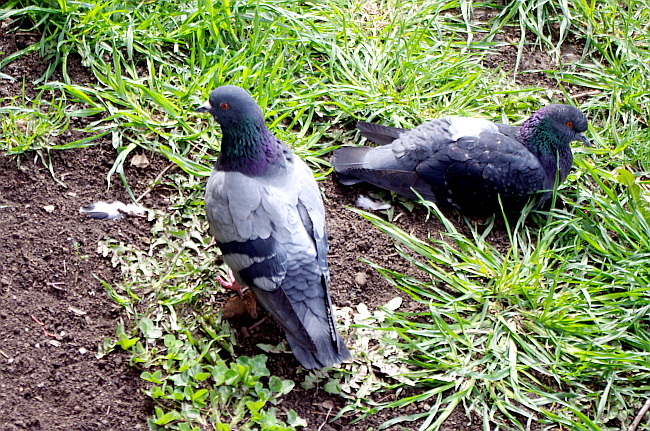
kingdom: Animalia
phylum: Chordata
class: Aves
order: Columbiformes
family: Columbidae
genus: Columba
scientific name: Columba livia
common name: Rock pigeon
